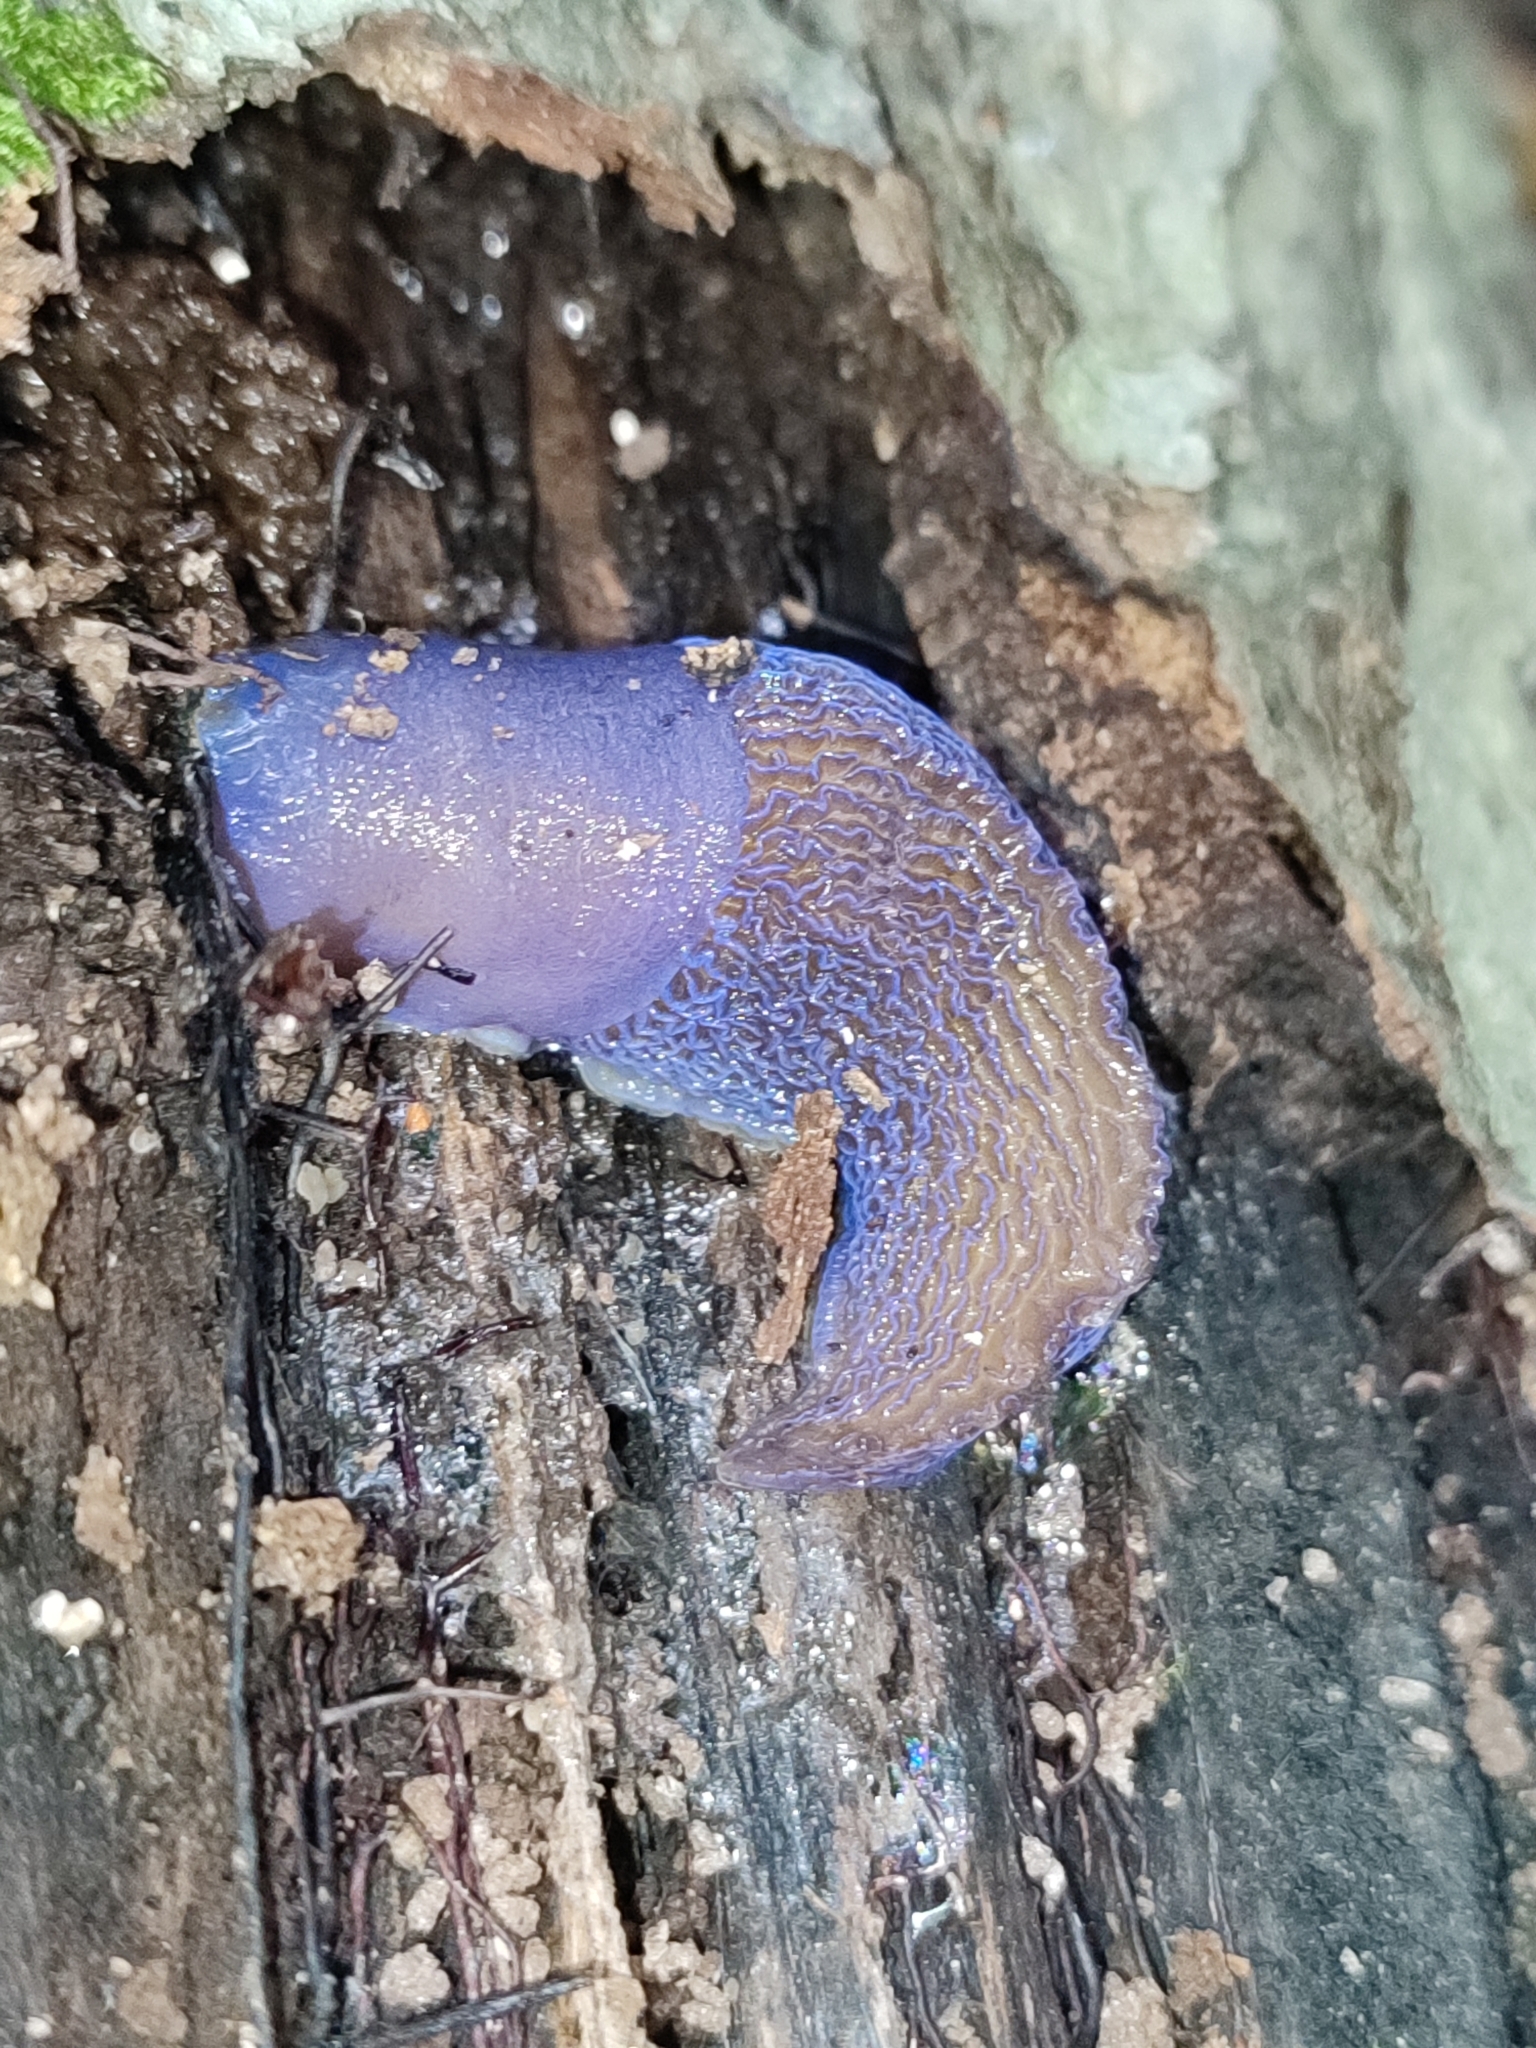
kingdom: Animalia
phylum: Mollusca
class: Gastropoda
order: Stylommatophora
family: Limacidae
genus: Bielzia
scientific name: Bielzia coerulans
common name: Carpathian blue slug
